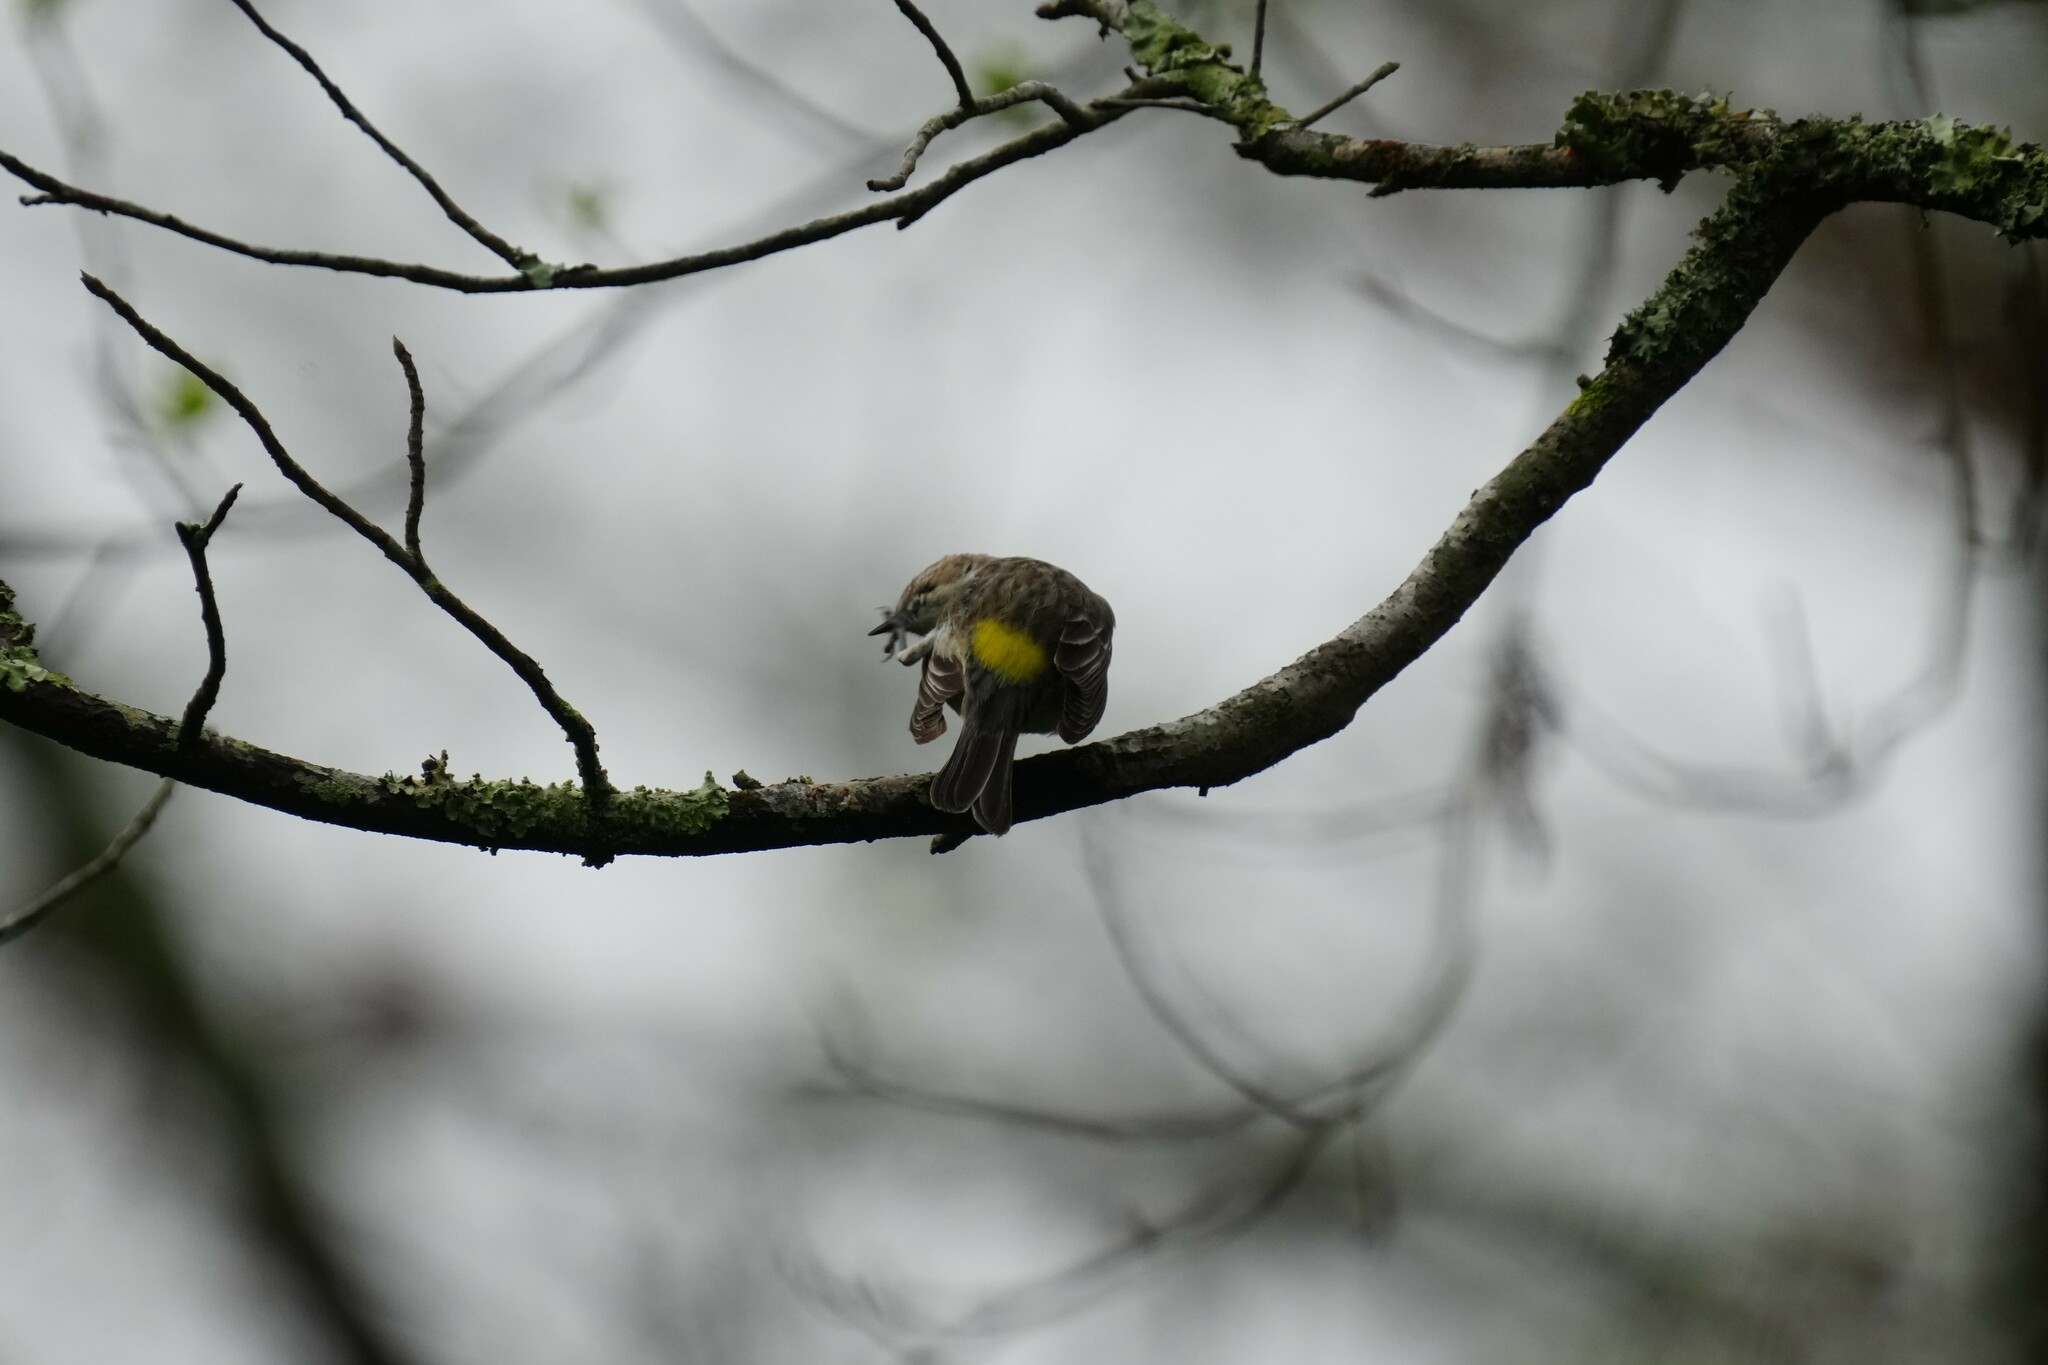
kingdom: Animalia
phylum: Chordata
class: Aves
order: Passeriformes
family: Parulidae
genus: Setophaga
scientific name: Setophaga coronata
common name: Myrtle warbler
